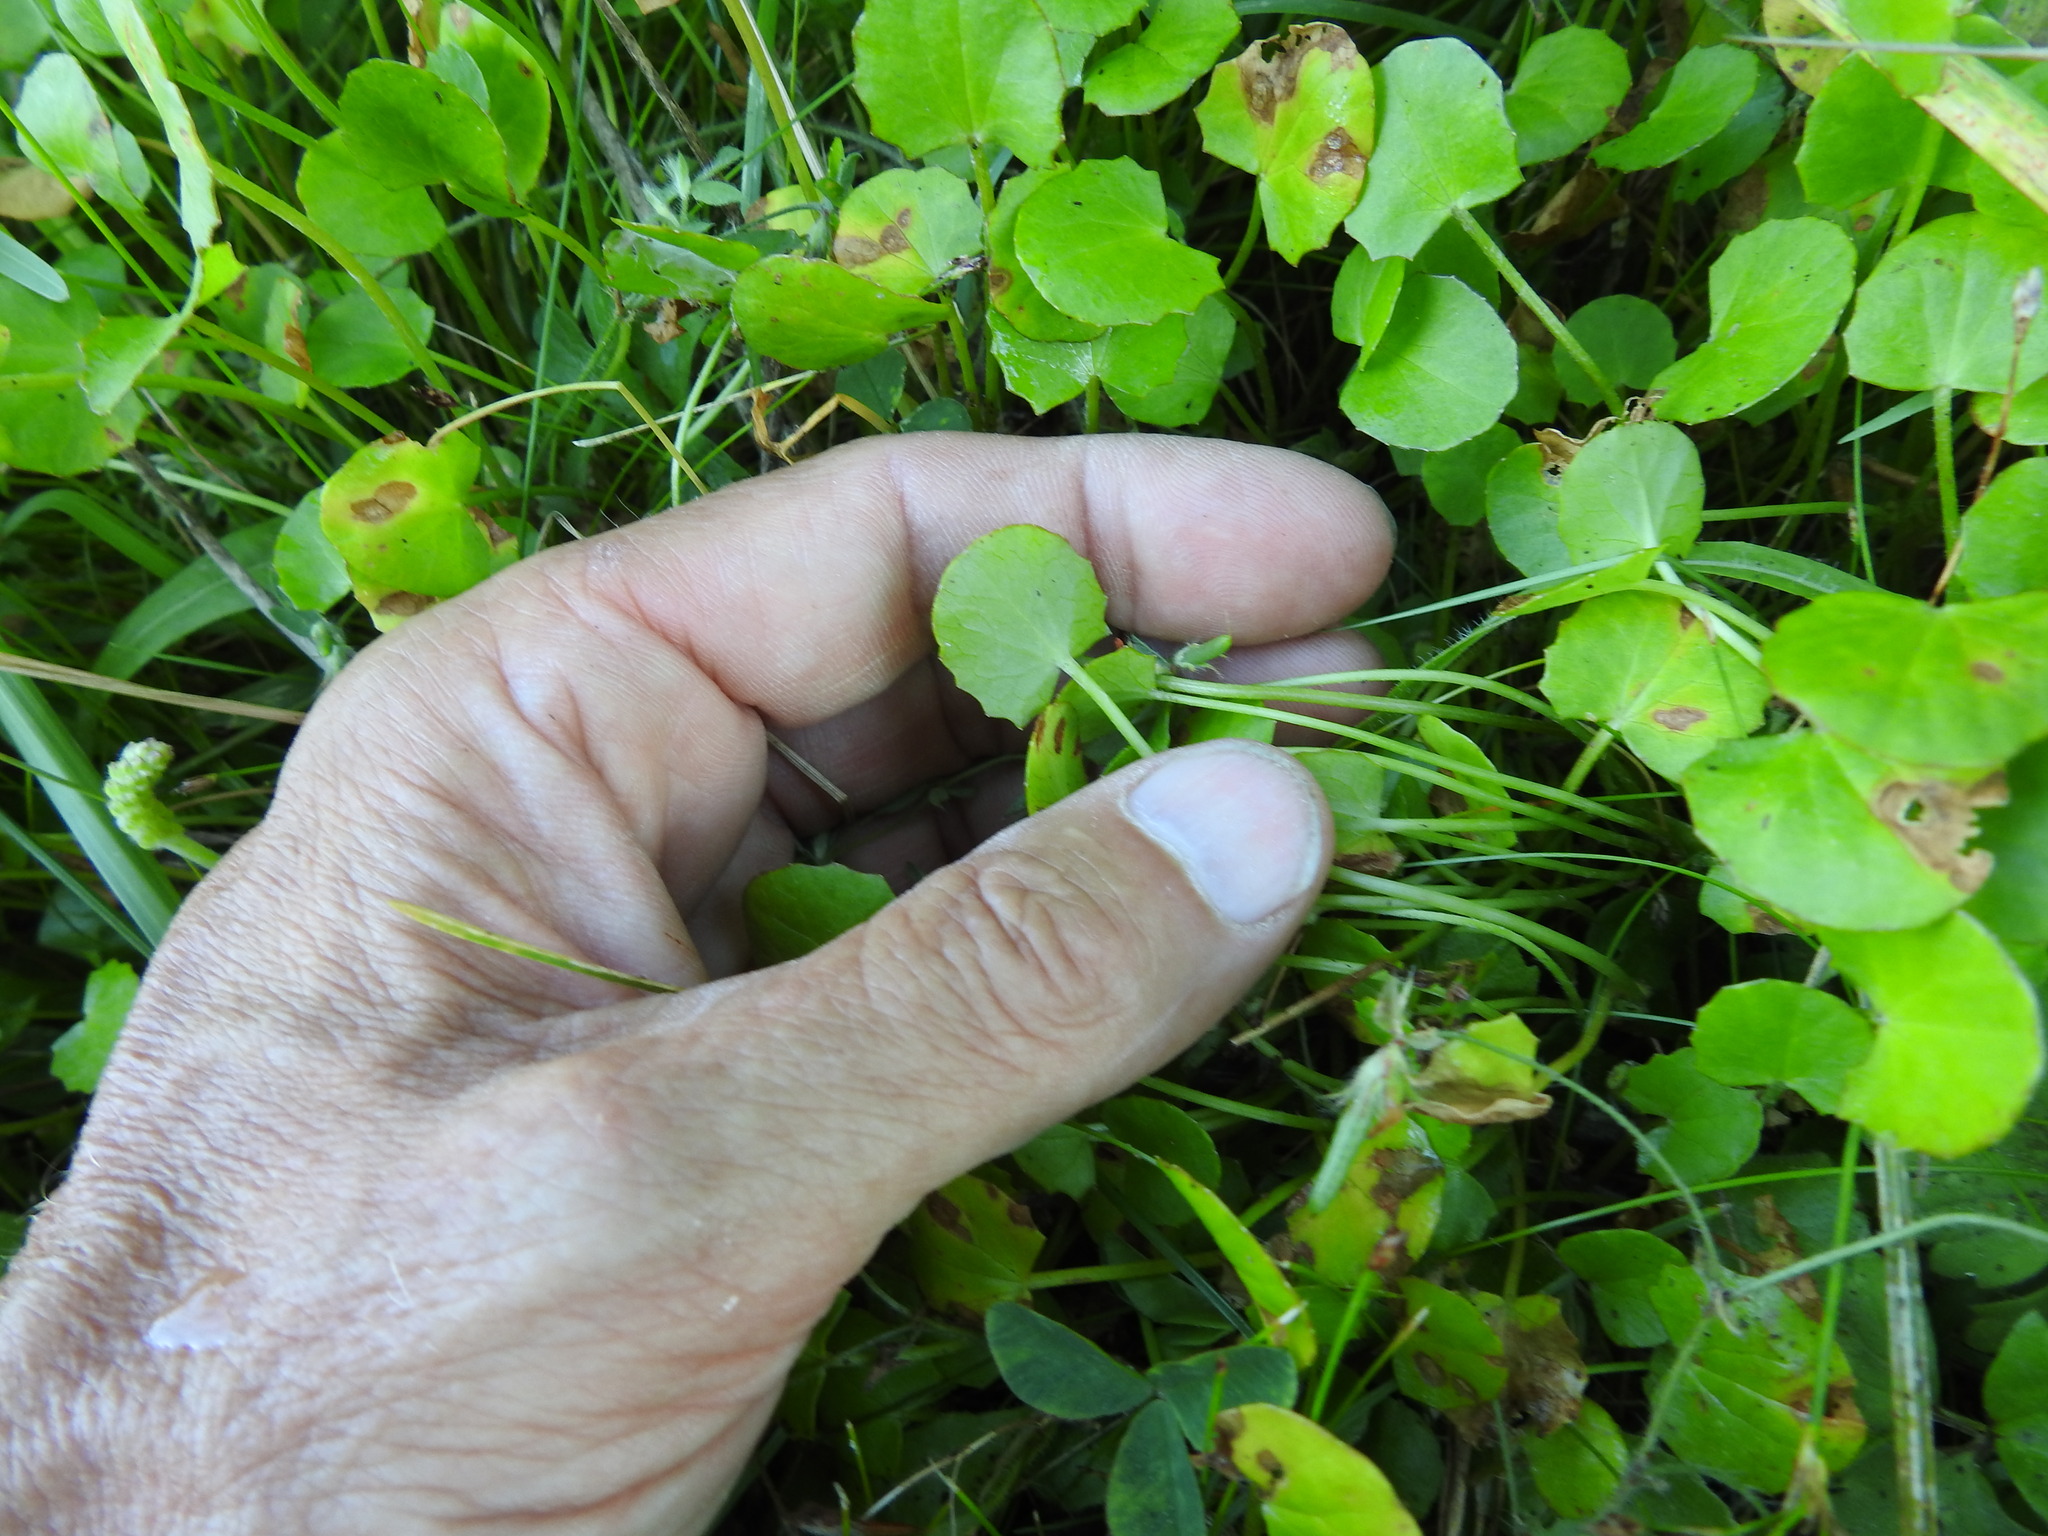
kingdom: Plantae
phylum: Tracheophyta
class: Magnoliopsida
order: Apiales
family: Apiaceae
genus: Centella
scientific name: Centella uniflora
